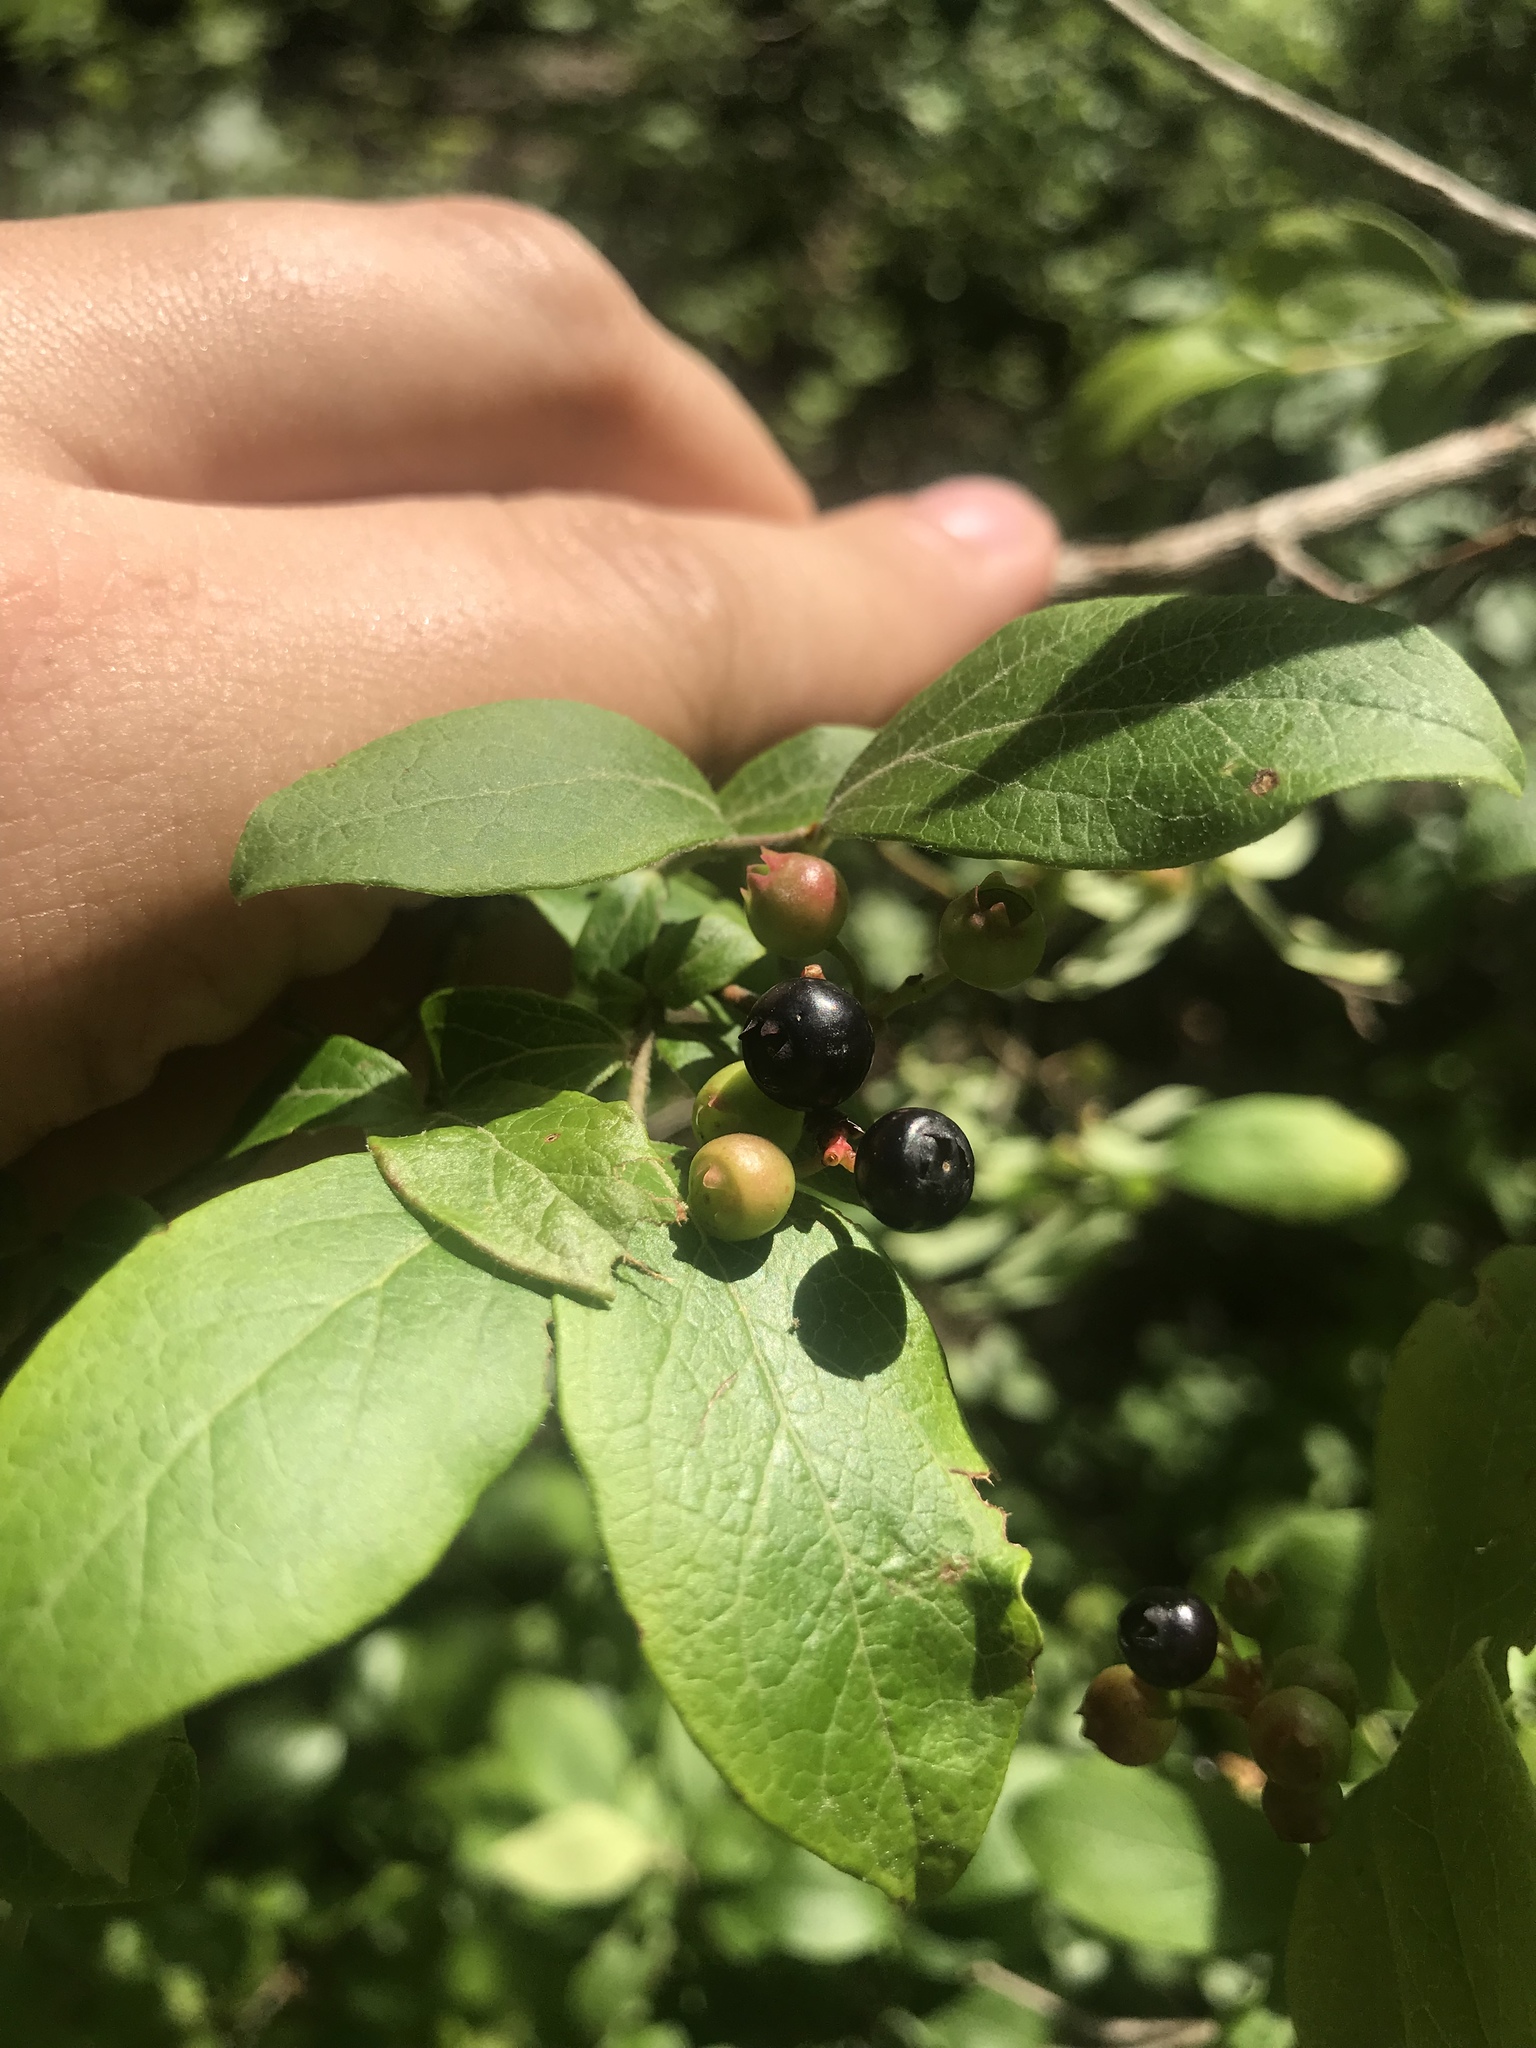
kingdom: Plantae
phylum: Tracheophyta
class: Magnoliopsida
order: Ericales
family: Ericaceae
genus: Vaccinium
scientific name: Vaccinium corymbosum
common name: Blueberry
